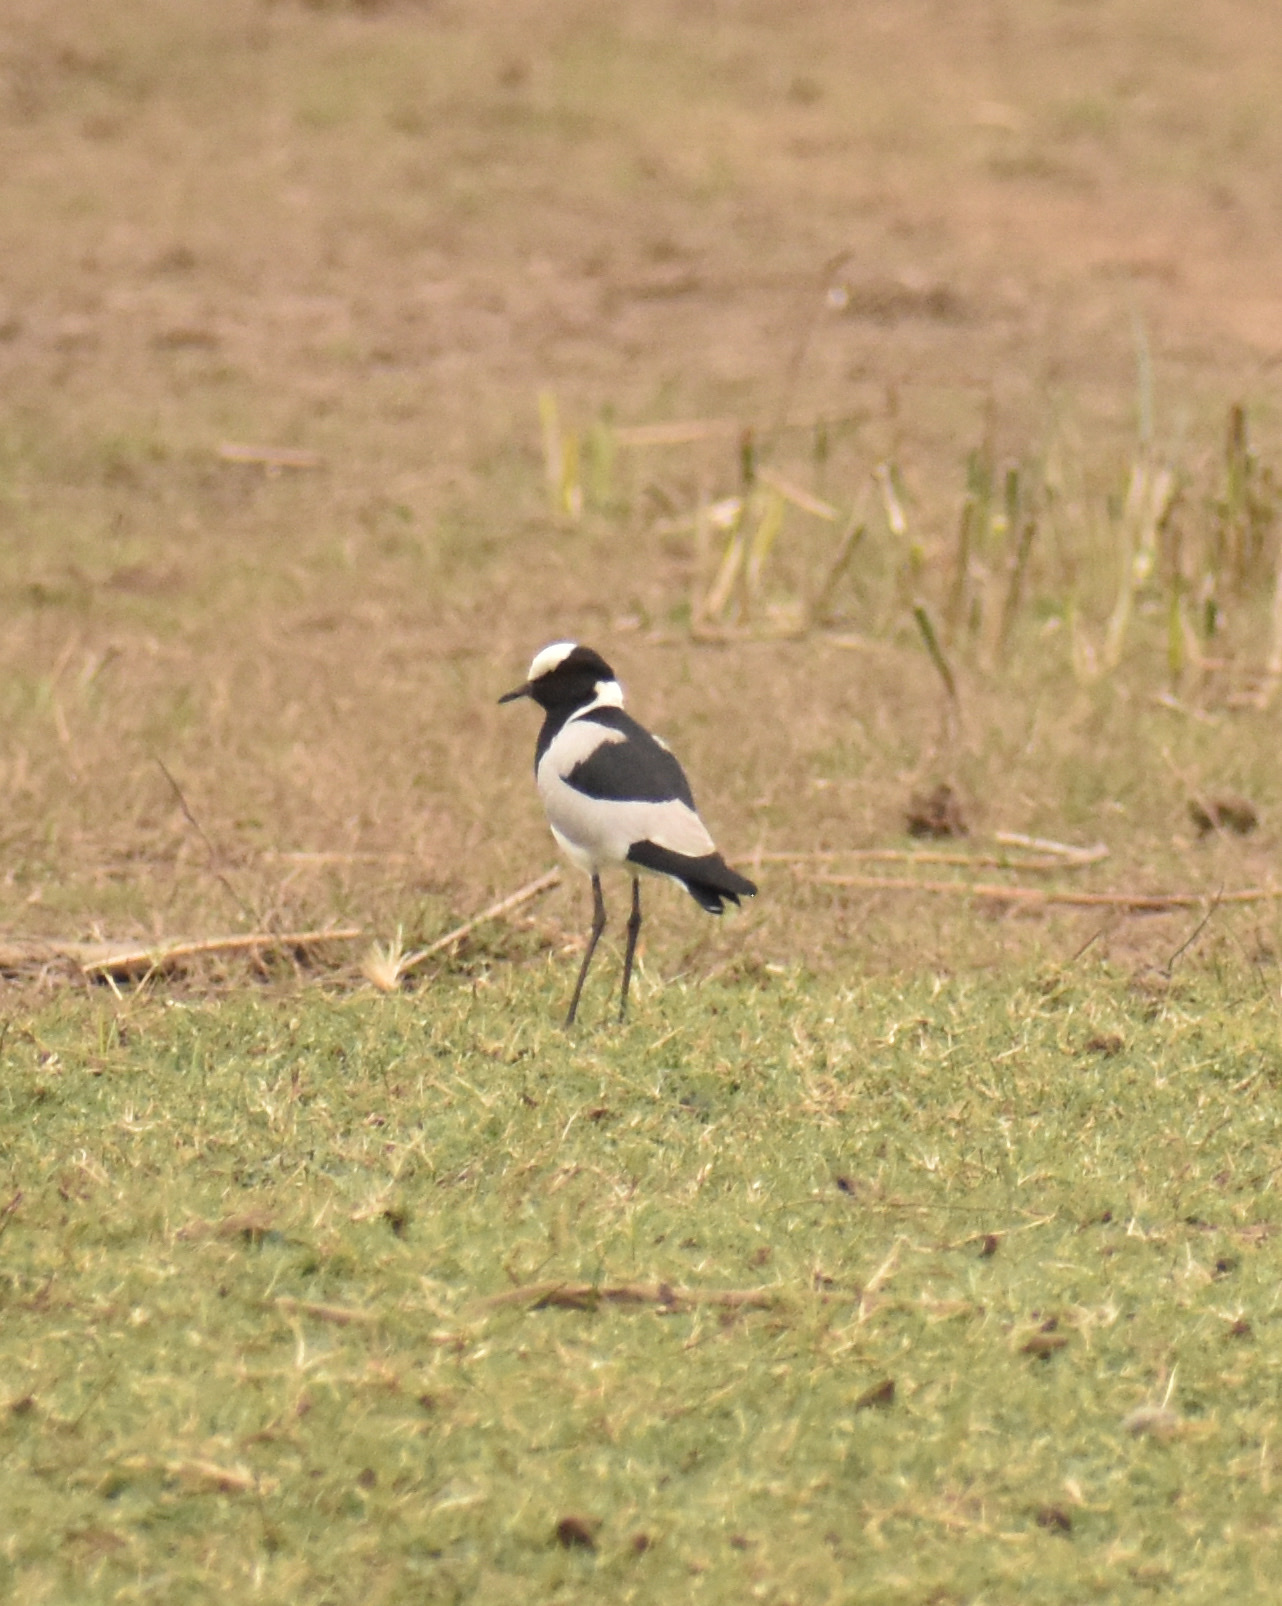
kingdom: Animalia
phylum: Chordata
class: Aves
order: Charadriiformes
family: Charadriidae
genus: Vanellus
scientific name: Vanellus armatus
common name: Blacksmith lapwing
